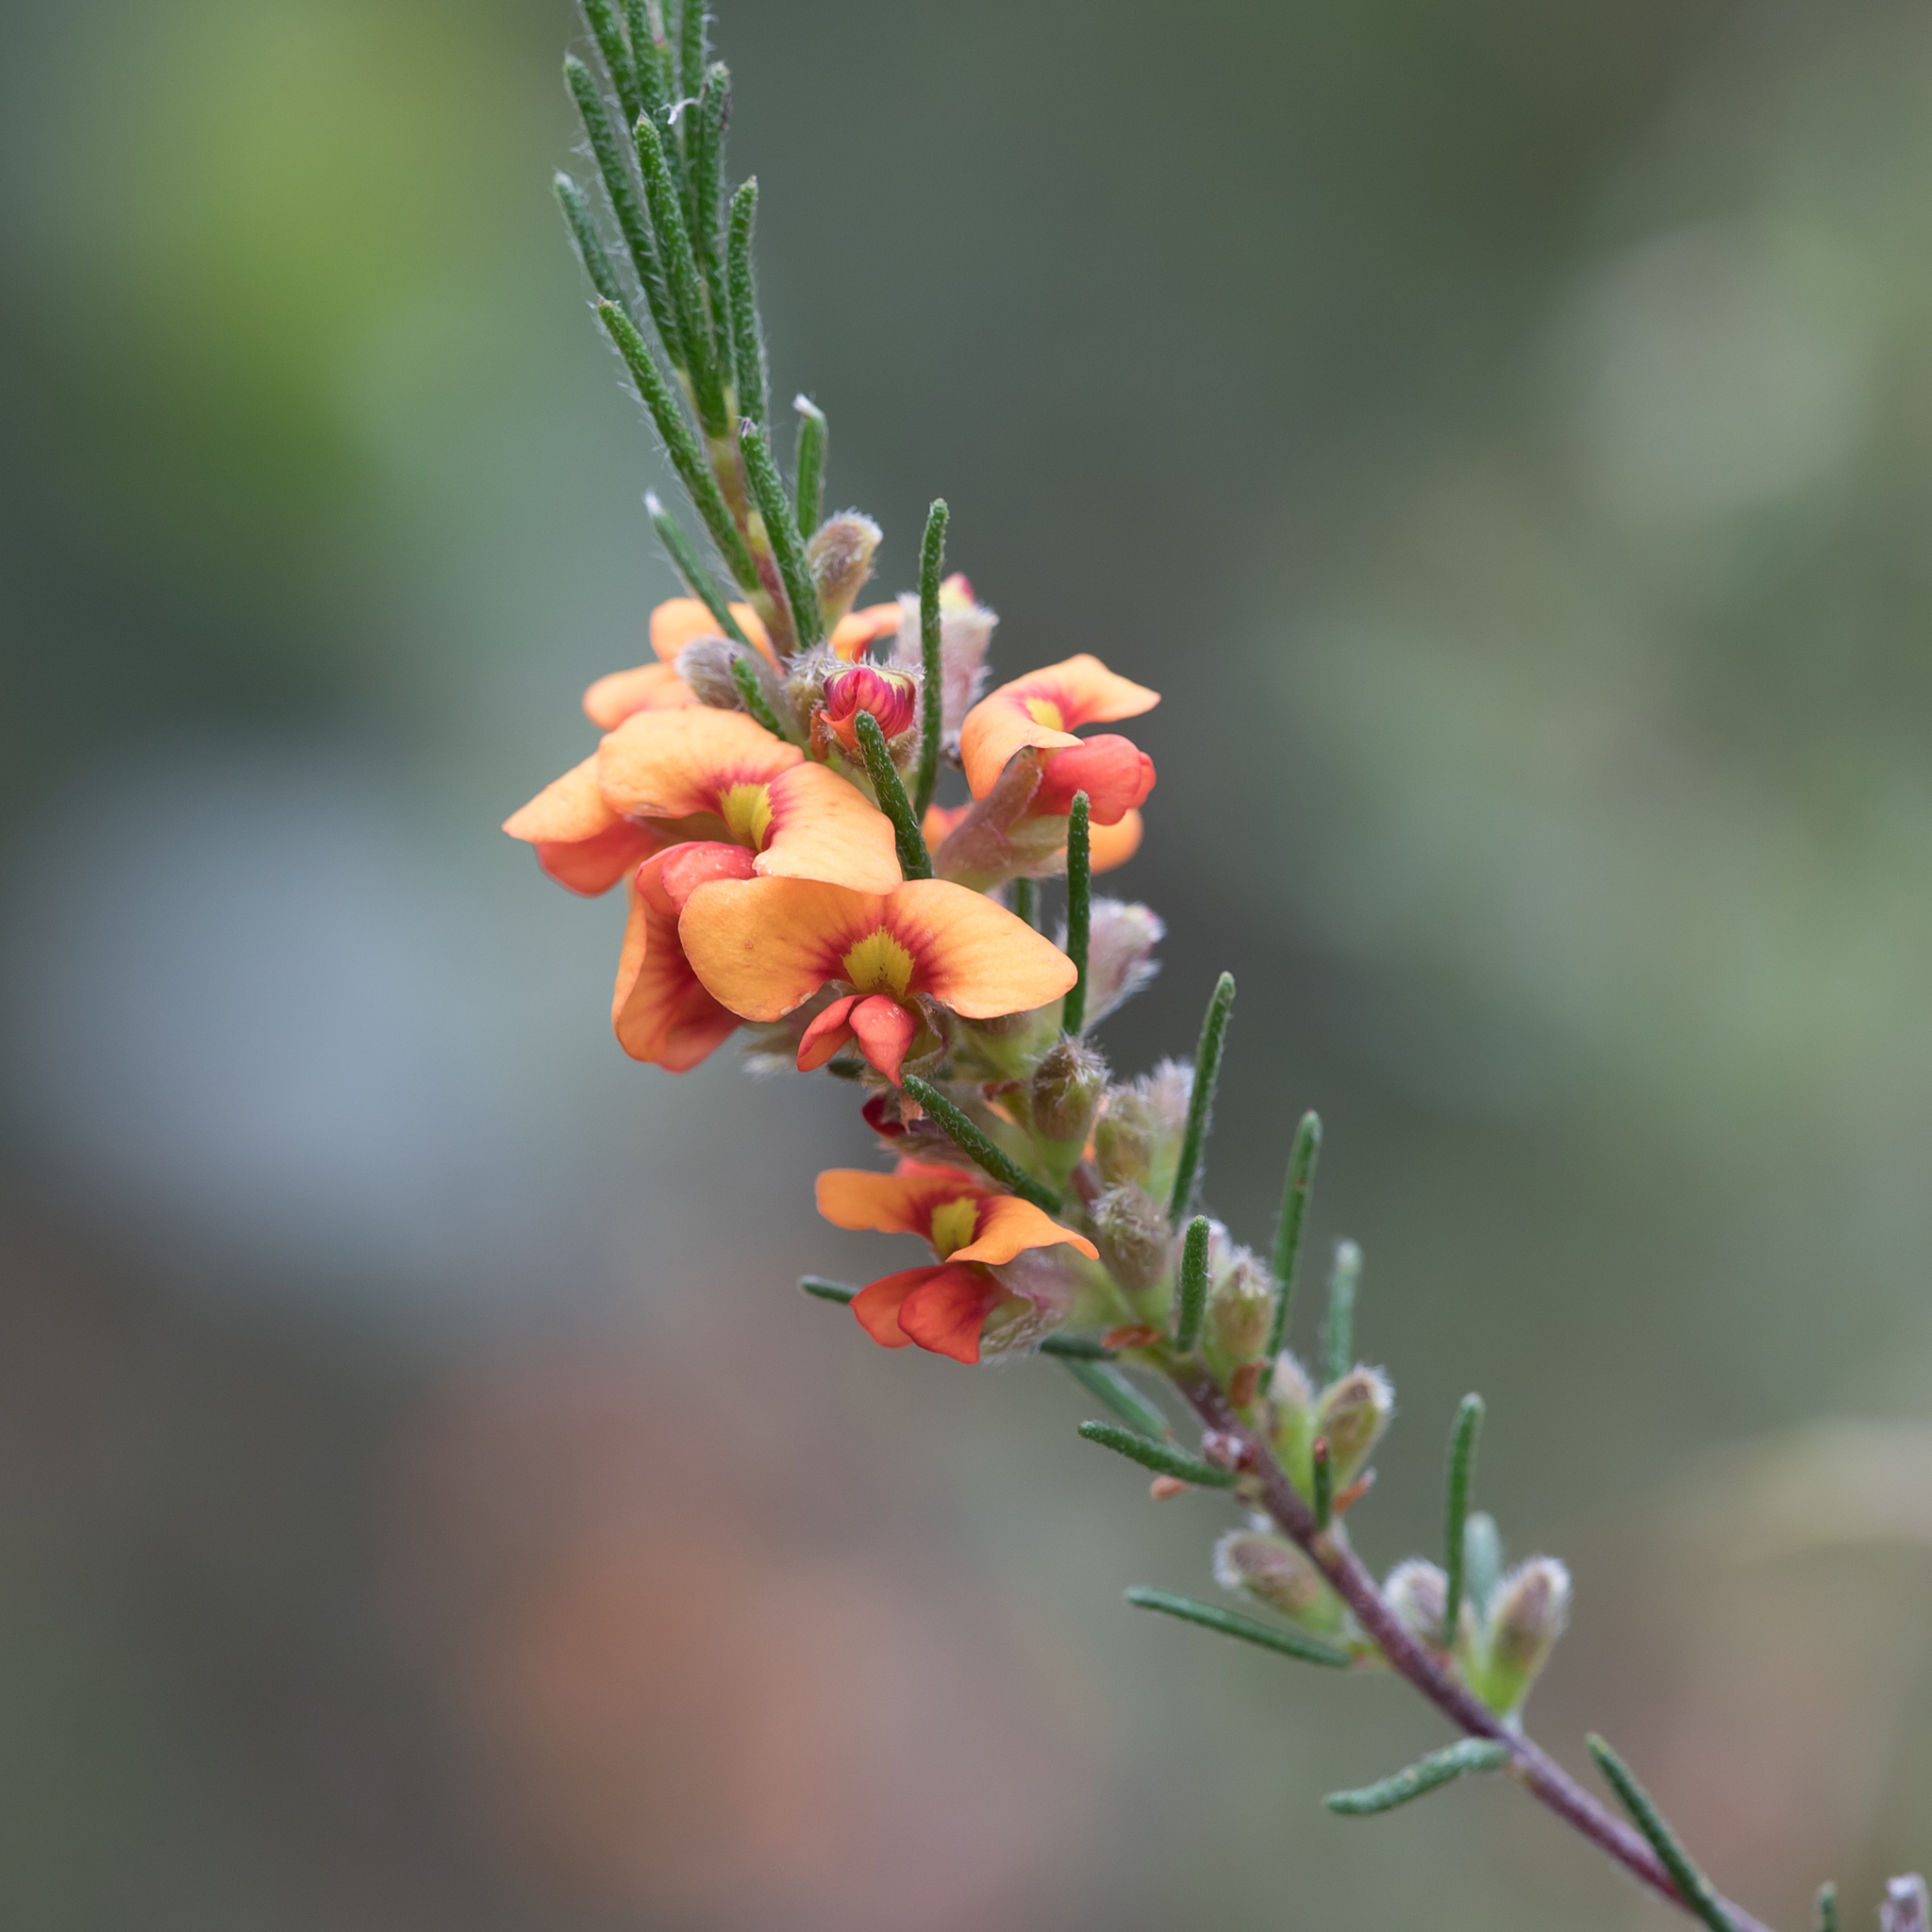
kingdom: Plantae
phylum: Tracheophyta
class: Magnoliopsida
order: Fabales
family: Fabaceae
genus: Dillwynia
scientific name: Dillwynia sericea
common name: Showy parrot-pea
